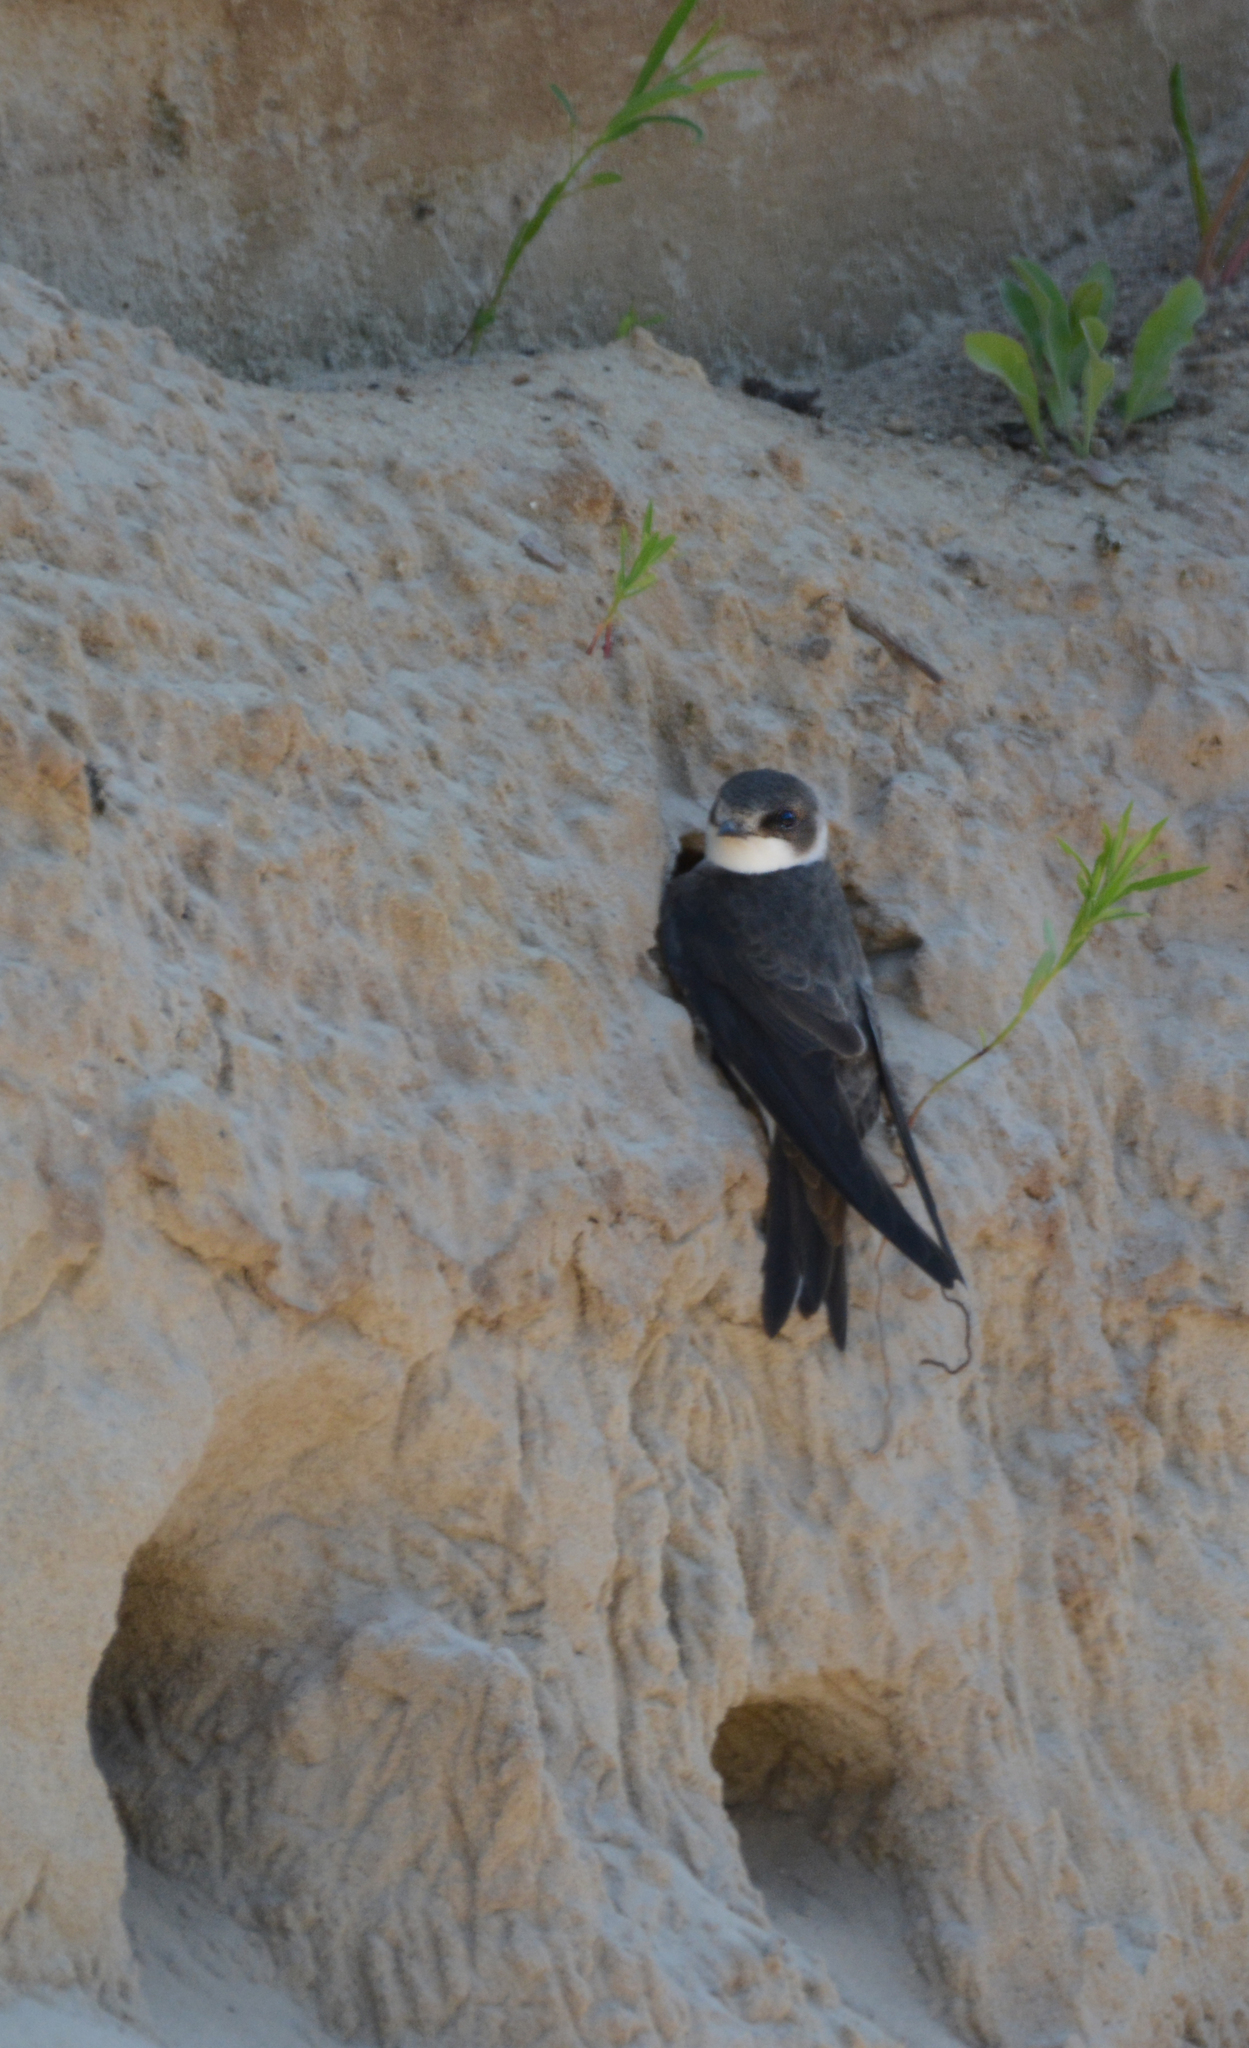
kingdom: Animalia
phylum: Chordata
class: Aves
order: Passeriformes
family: Hirundinidae
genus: Riparia
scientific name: Riparia riparia
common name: Sand martin
